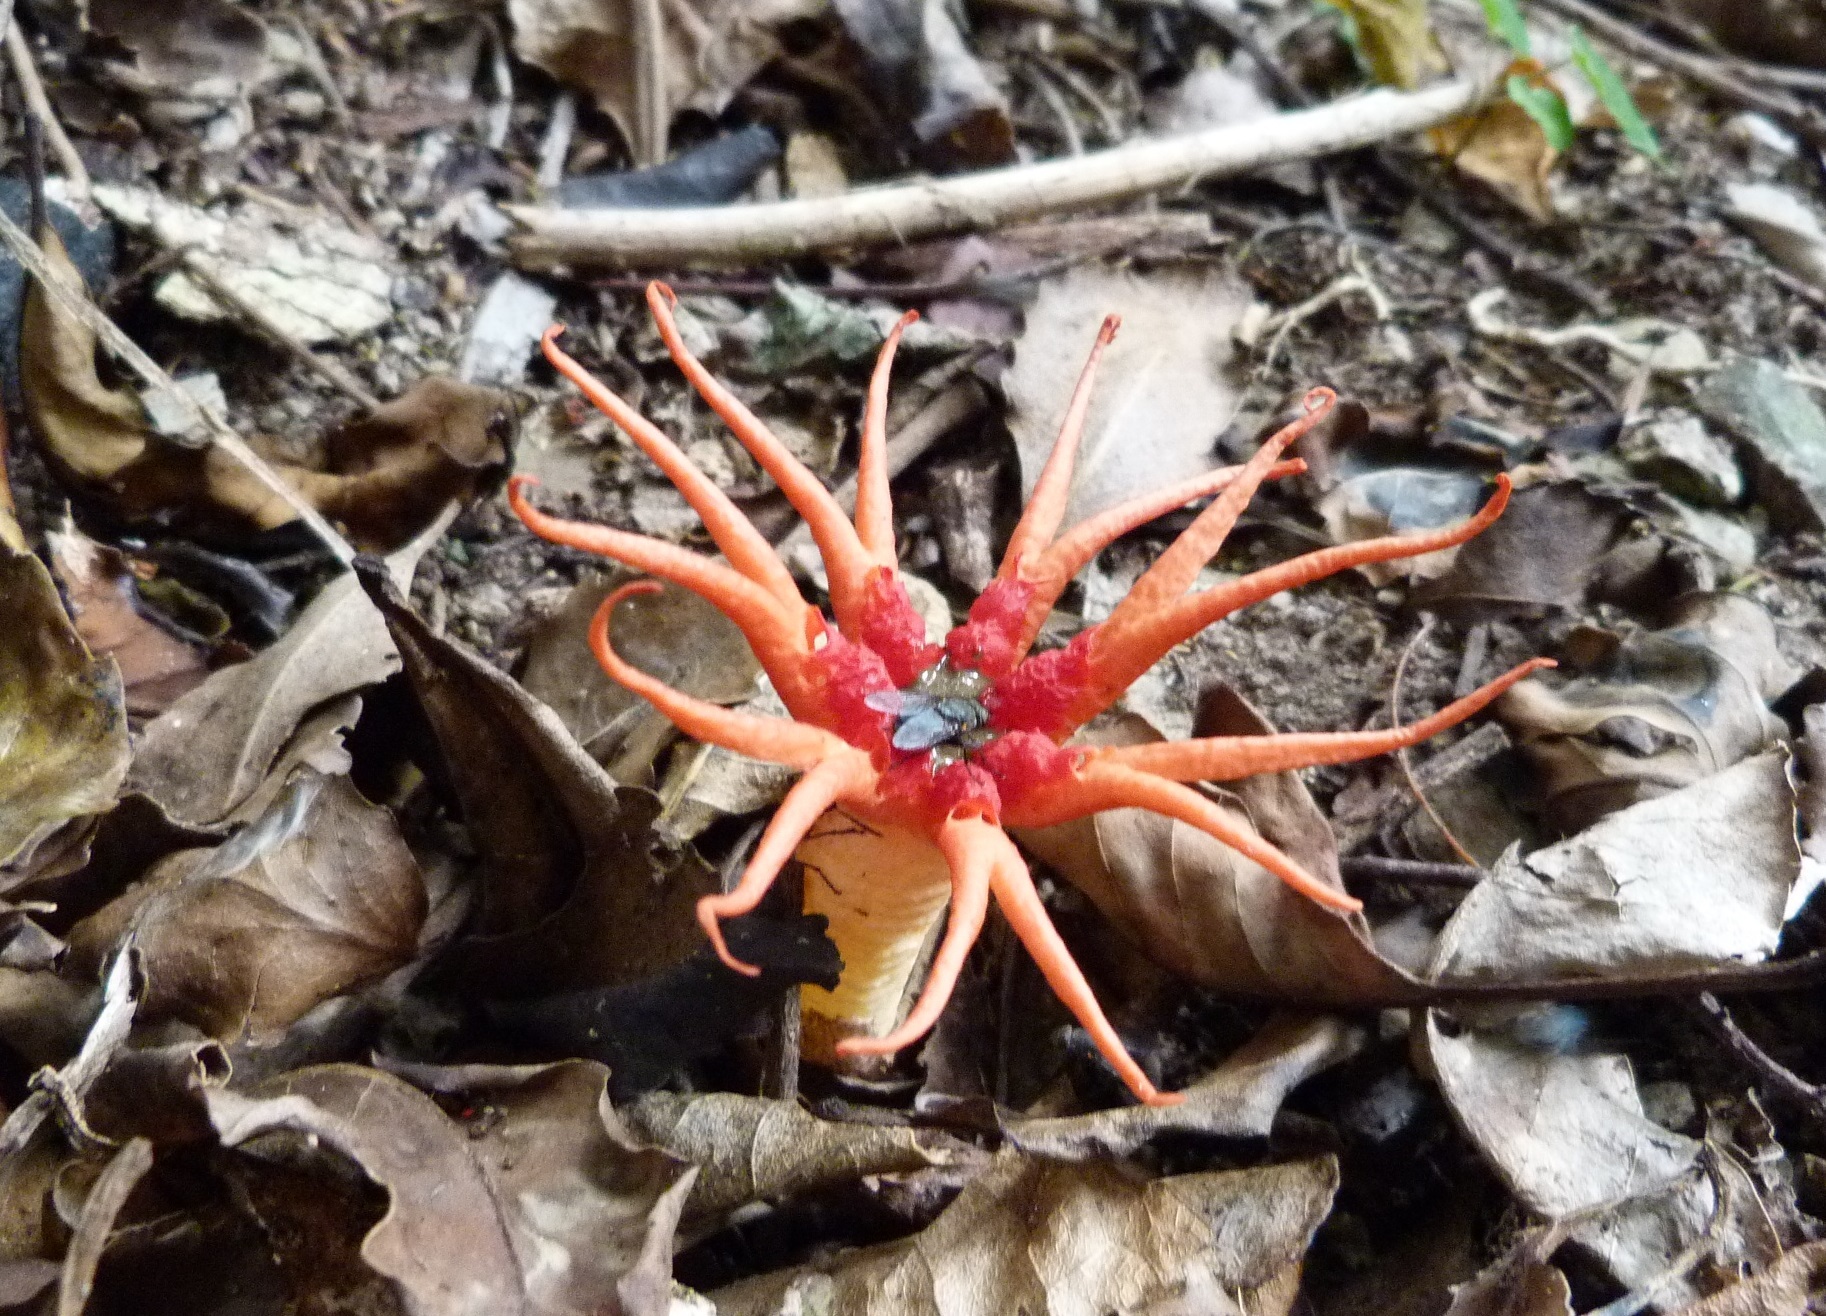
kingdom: Fungi
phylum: Basidiomycota
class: Agaricomycetes
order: Phallales
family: Phallaceae
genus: Aseroe
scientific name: Aseroe rubra
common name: Starfish fungus
